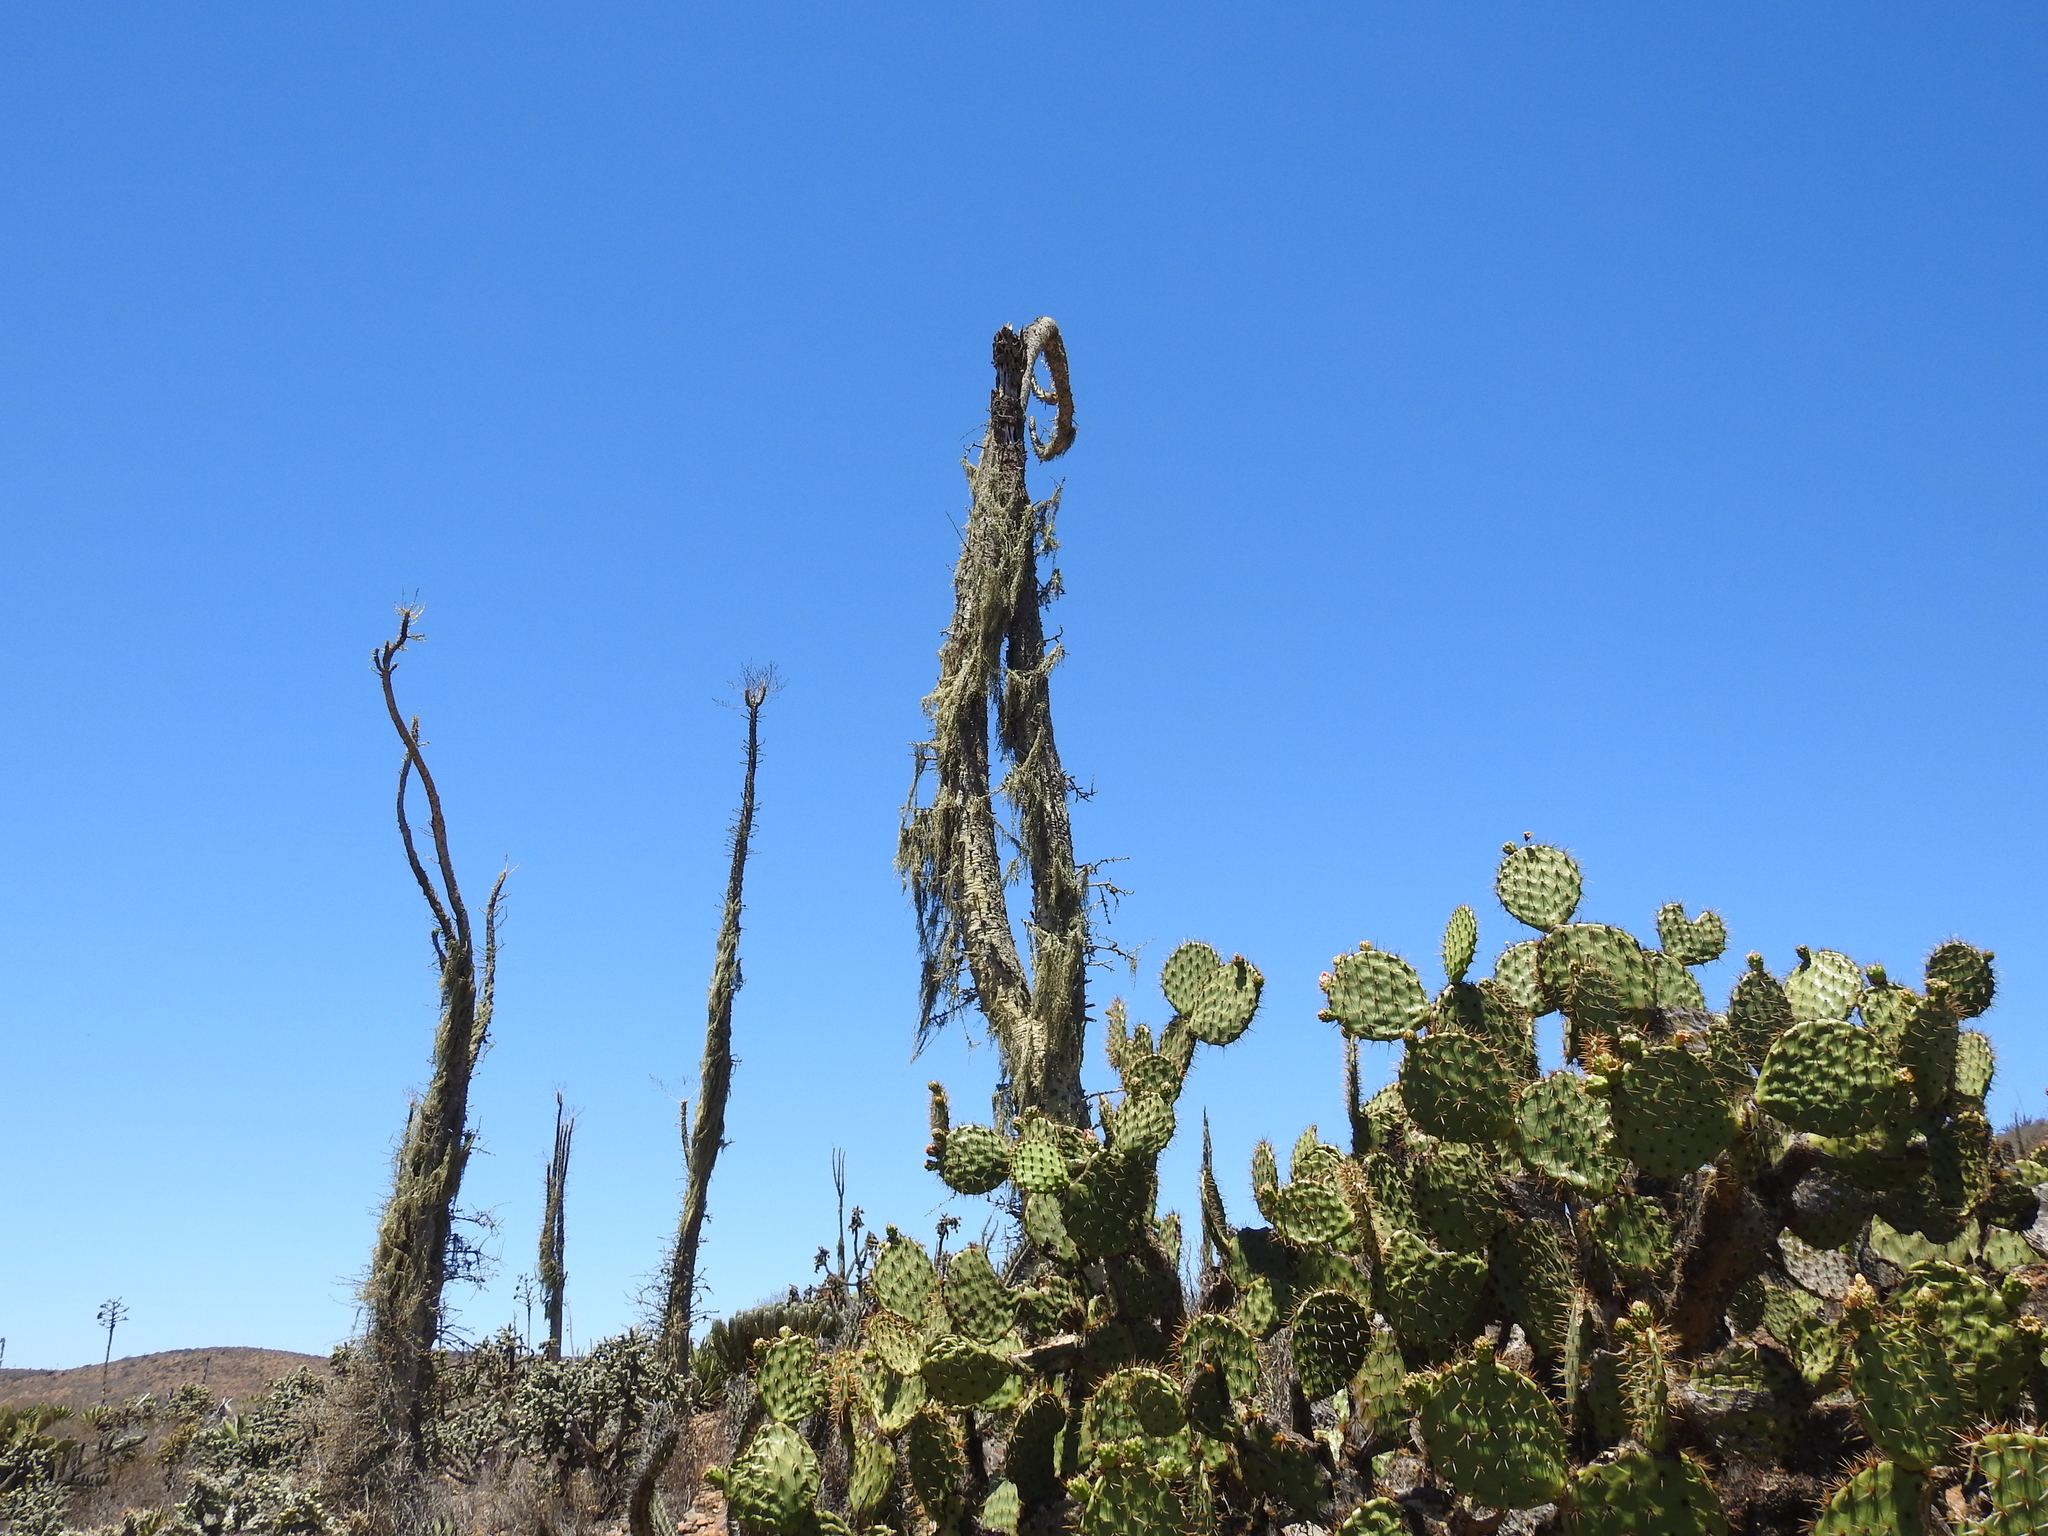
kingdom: Plantae
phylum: Tracheophyta
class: Magnoliopsida
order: Ericales
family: Fouquieriaceae
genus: Fouquieria
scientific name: Fouquieria columnaris
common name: Boojumtree
